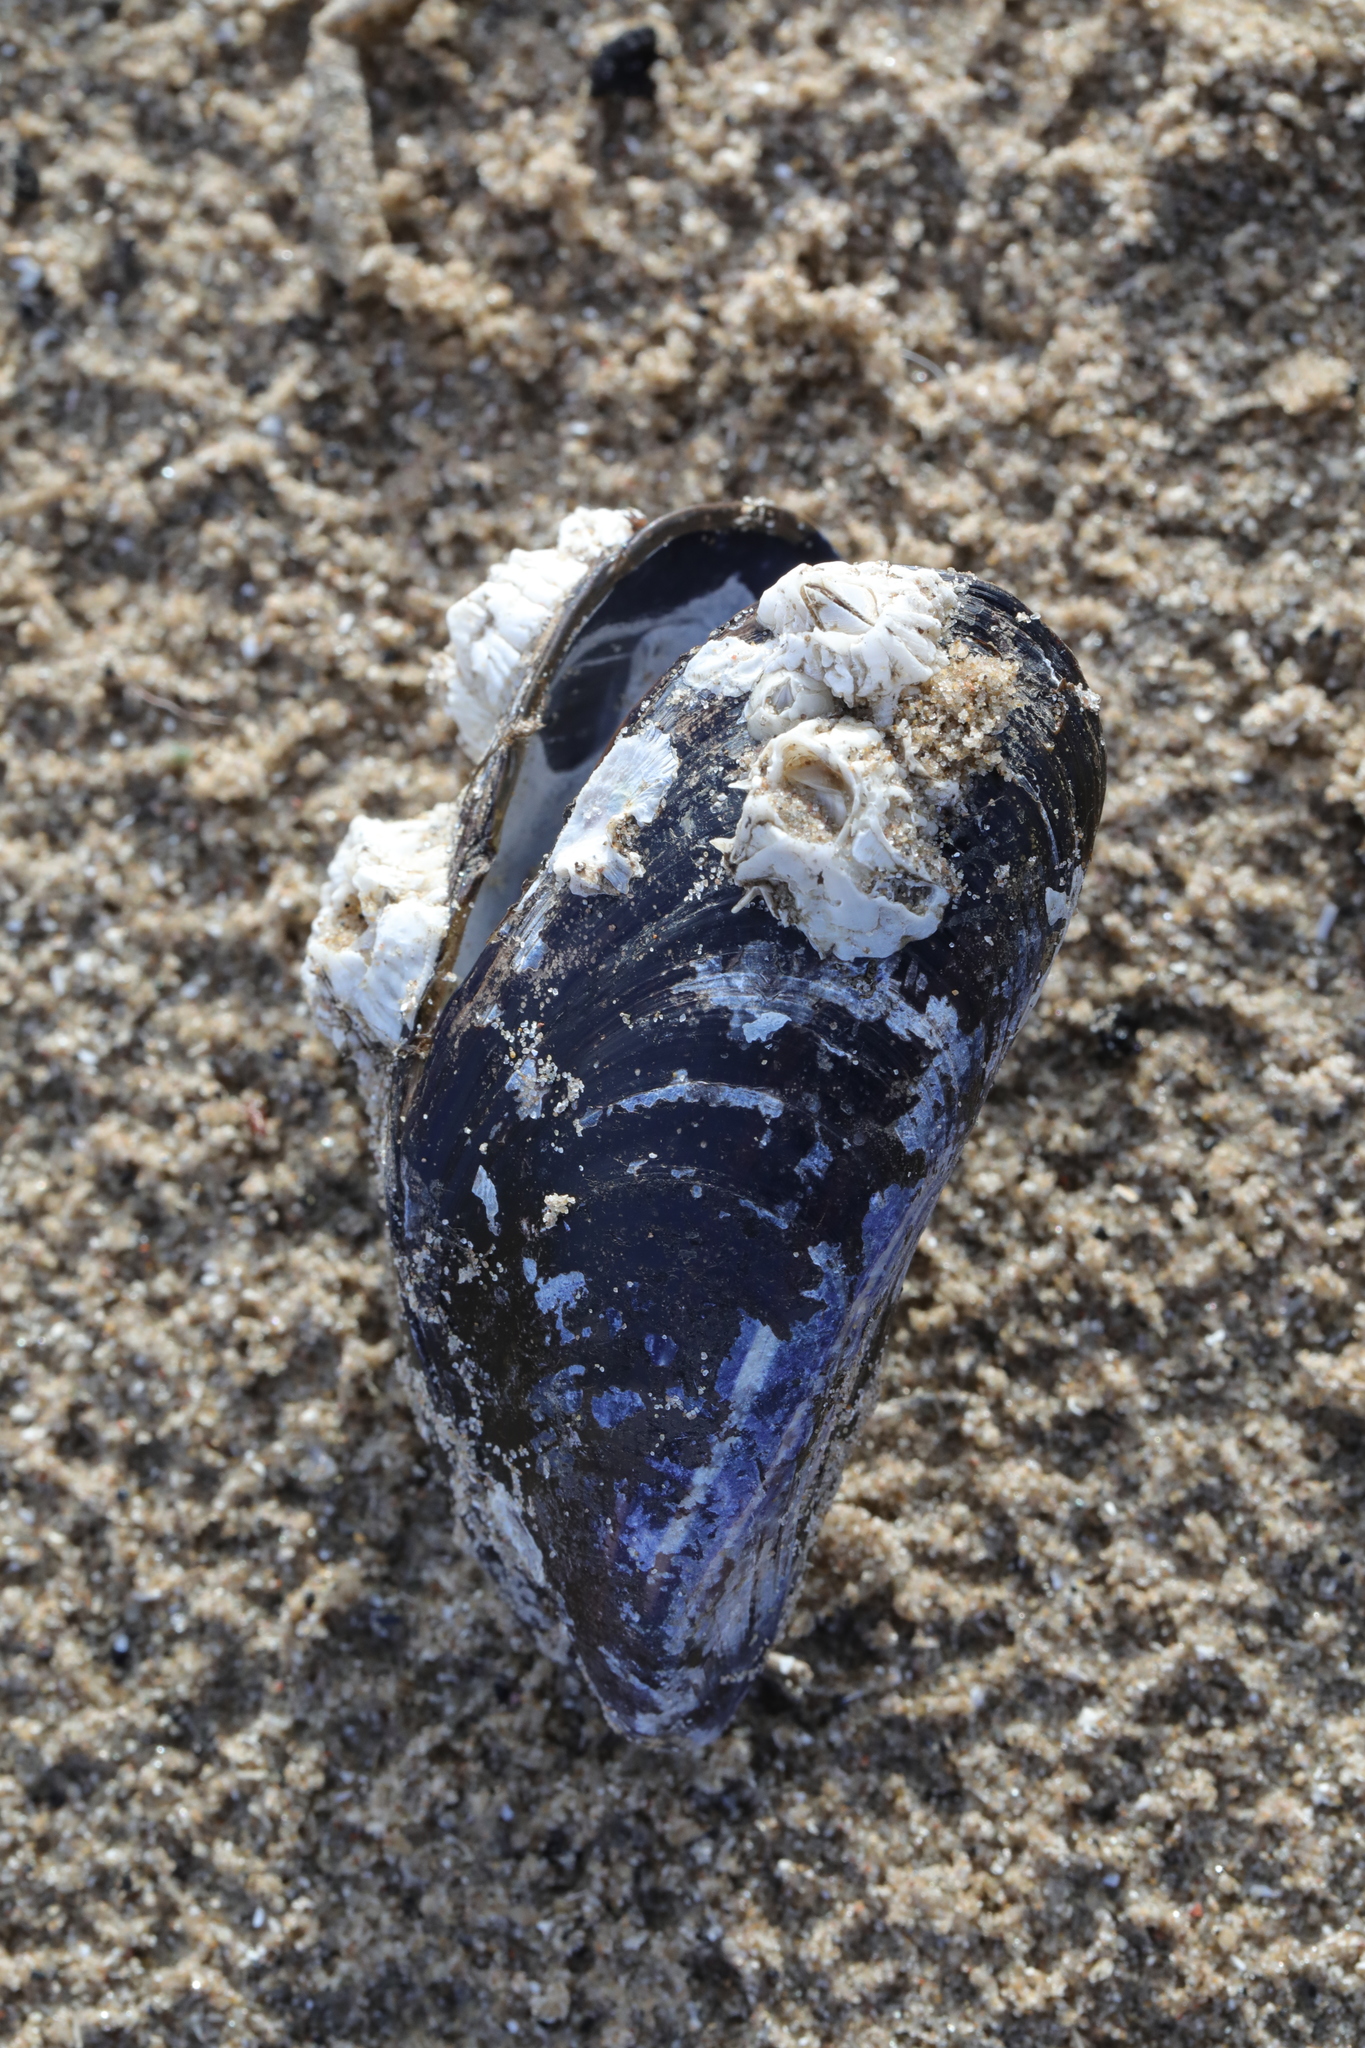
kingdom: Animalia
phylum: Mollusca
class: Bivalvia
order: Mytilida
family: Mytilidae
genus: Mytilus
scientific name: Mytilus edulis
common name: Blue mussel
